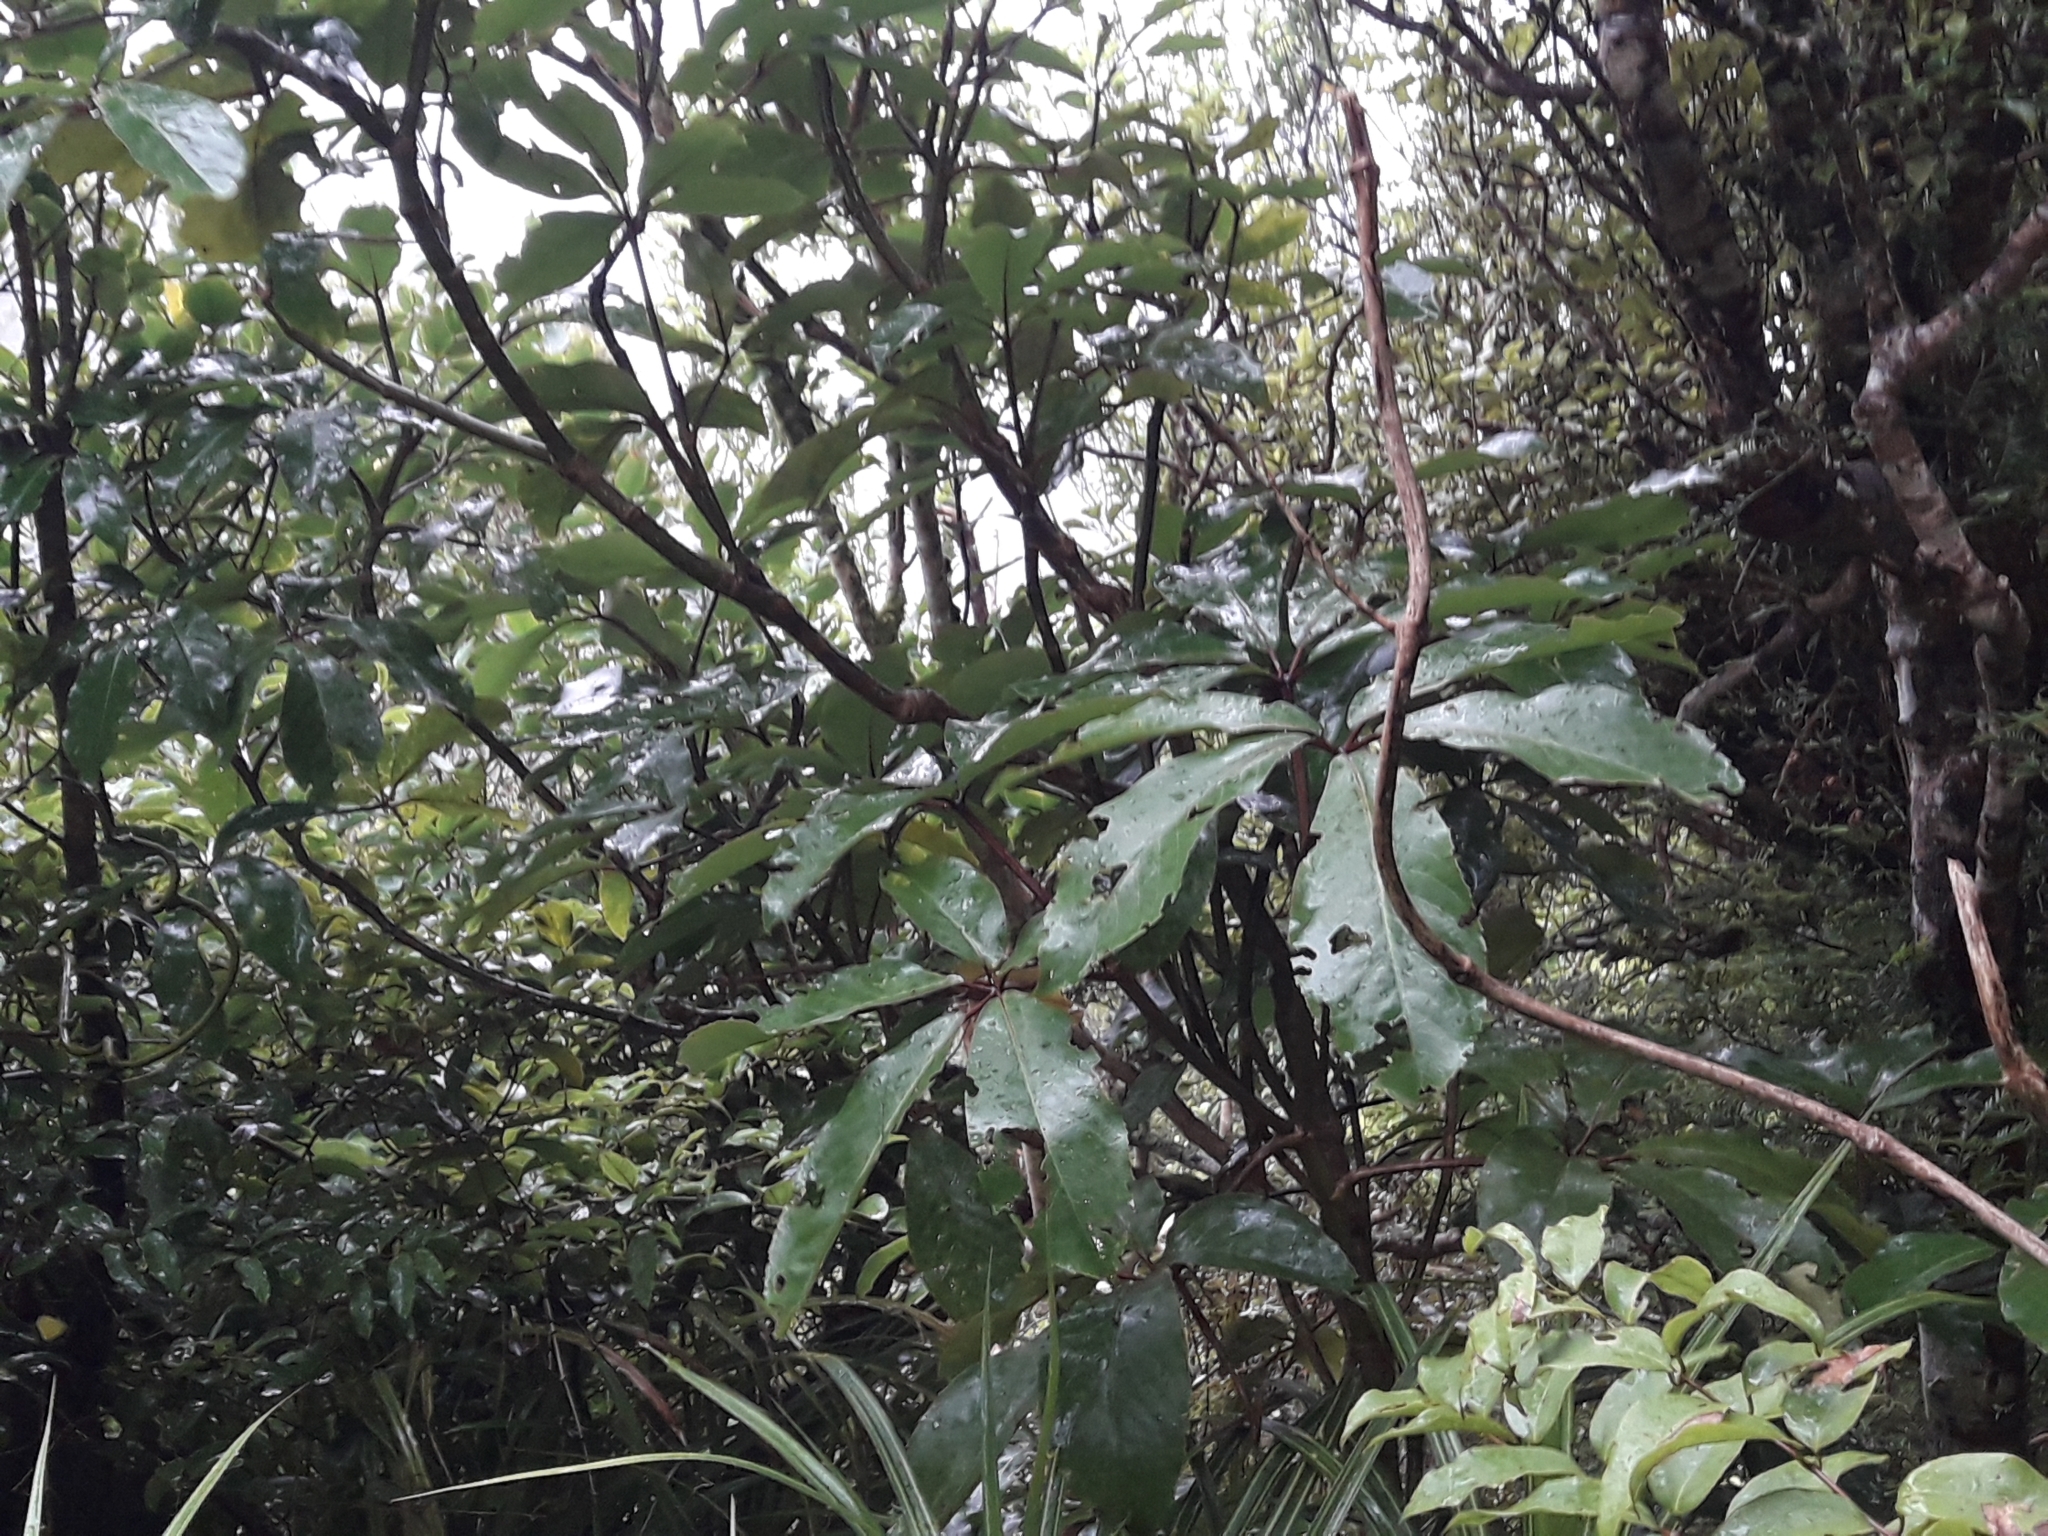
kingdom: Plantae
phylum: Tracheophyta
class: Magnoliopsida
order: Apiales
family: Araliaceae
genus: Neopanax
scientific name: Neopanax laetus
